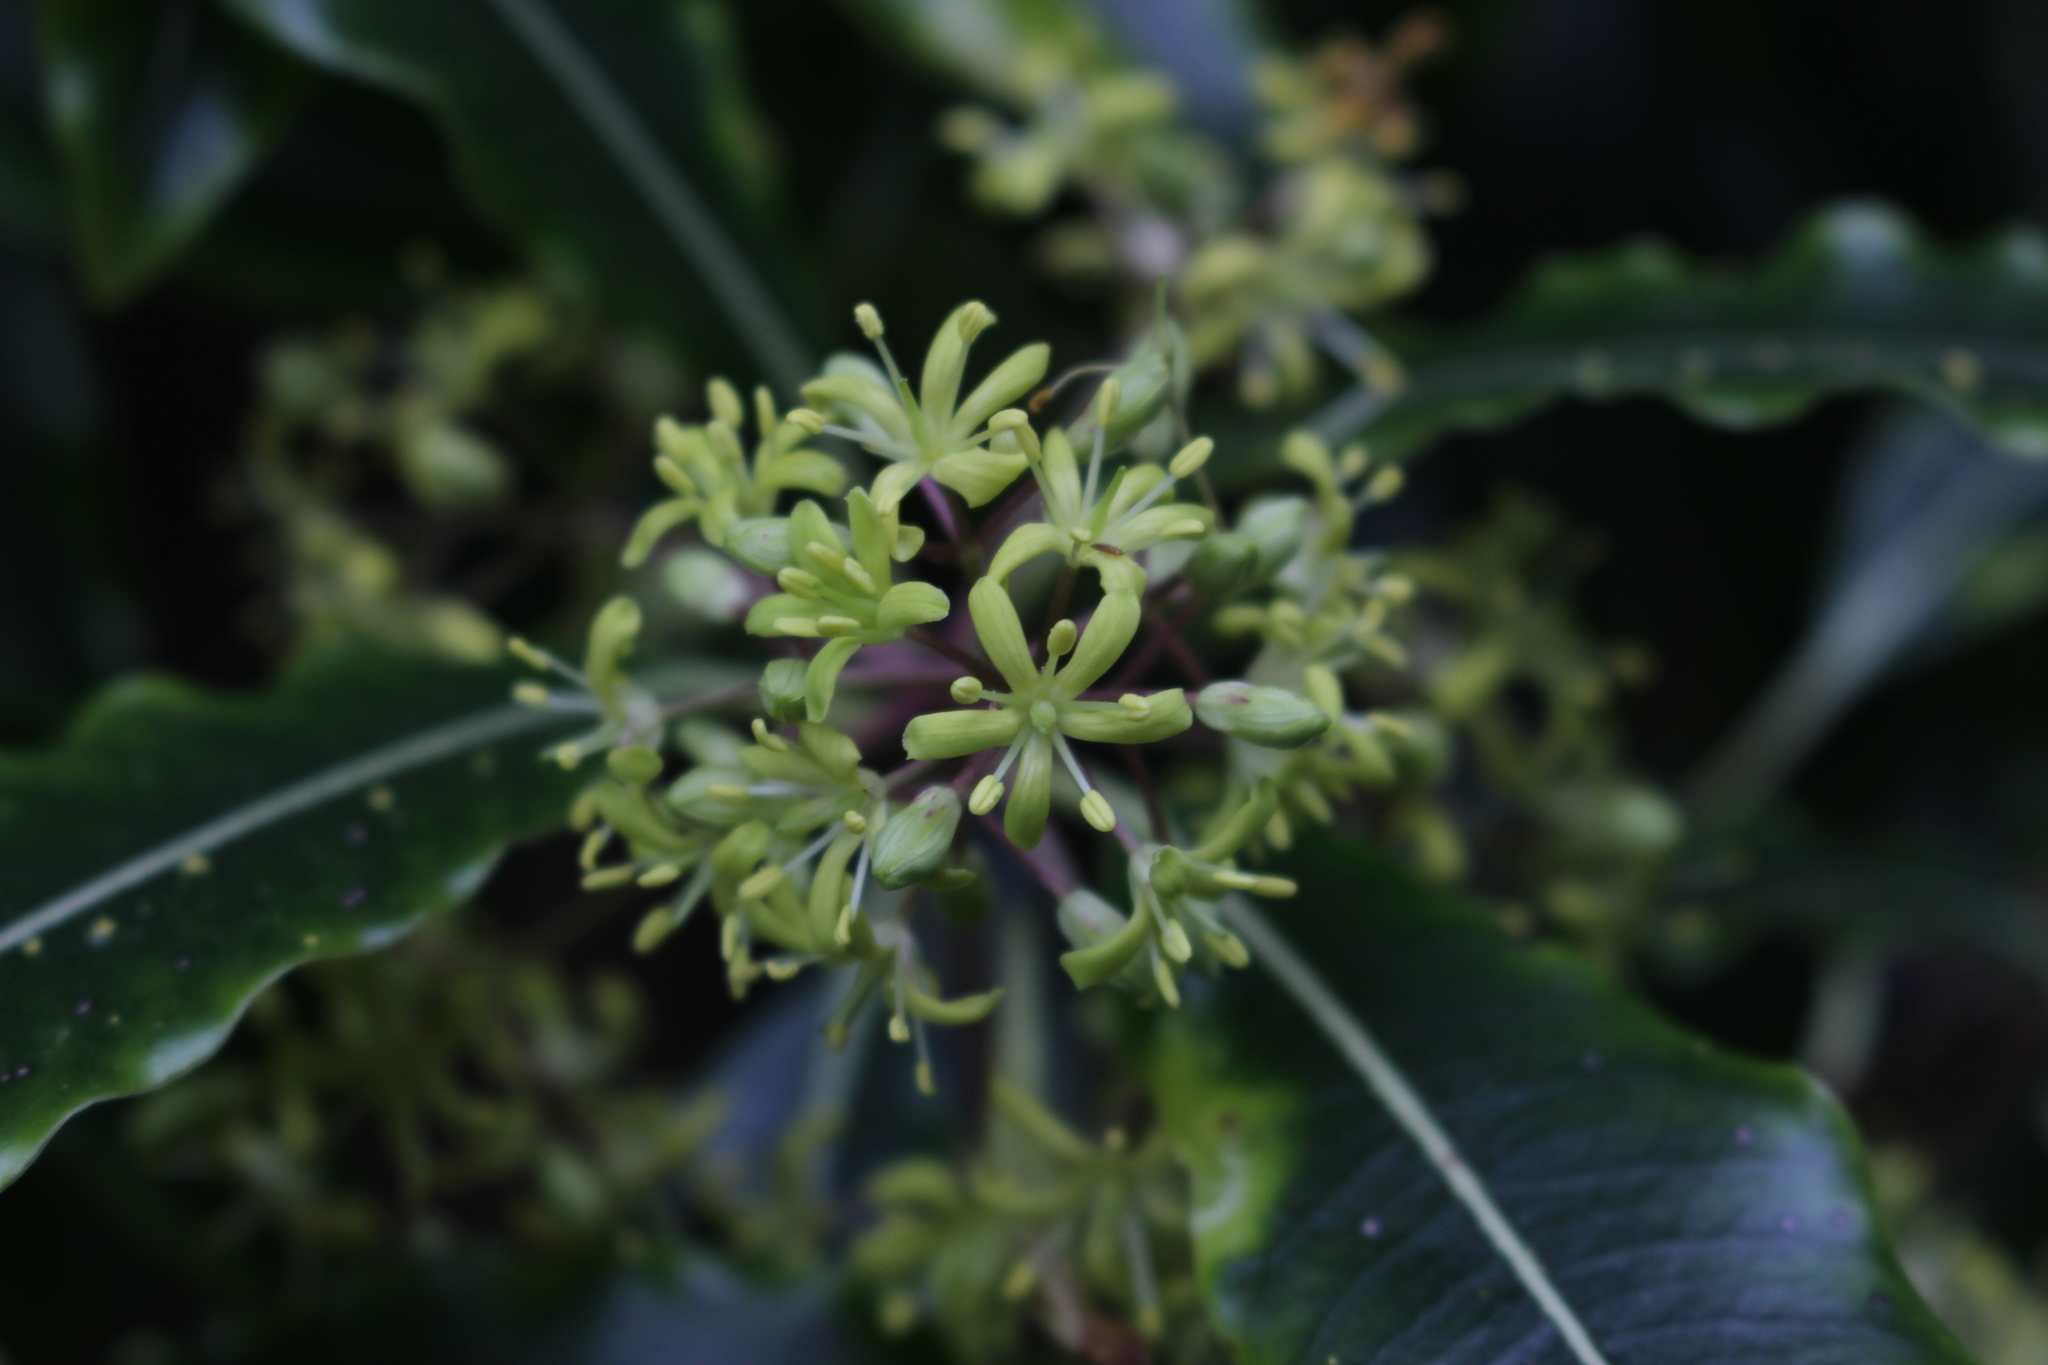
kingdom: Plantae
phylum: Tracheophyta
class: Magnoliopsida
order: Apiales
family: Pittosporaceae
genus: Pittosporum
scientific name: Pittosporum eugenioides
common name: Lemonwood
